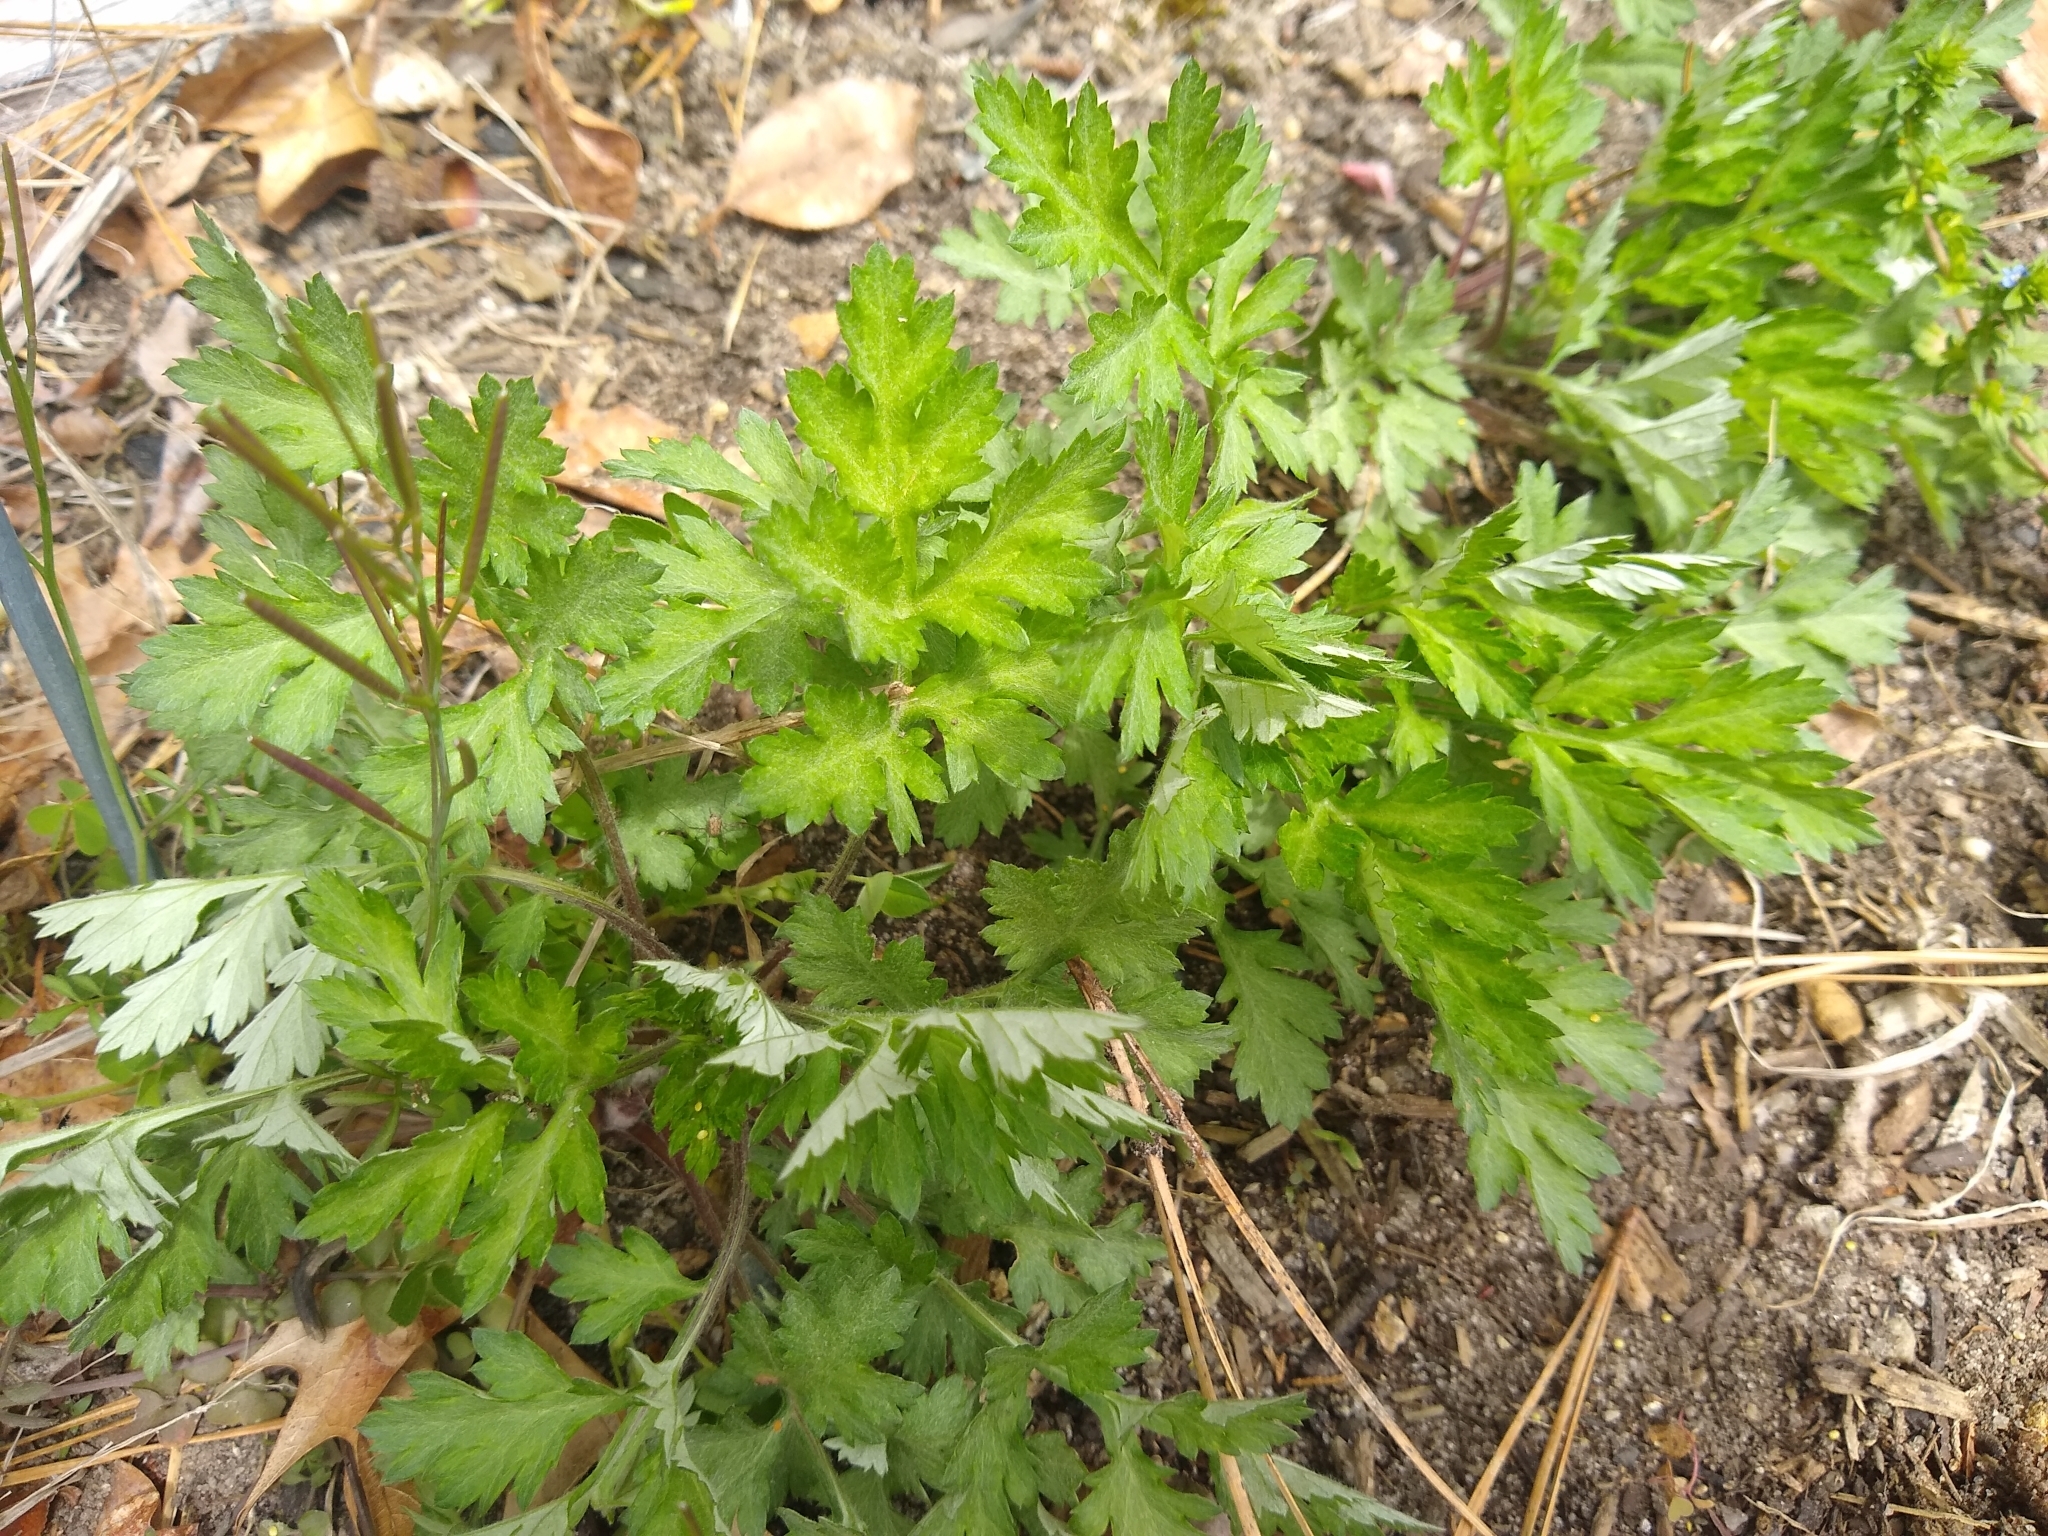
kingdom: Plantae
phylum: Tracheophyta
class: Magnoliopsida
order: Asterales
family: Asteraceae
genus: Artemisia
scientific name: Artemisia vulgaris
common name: Mugwort
